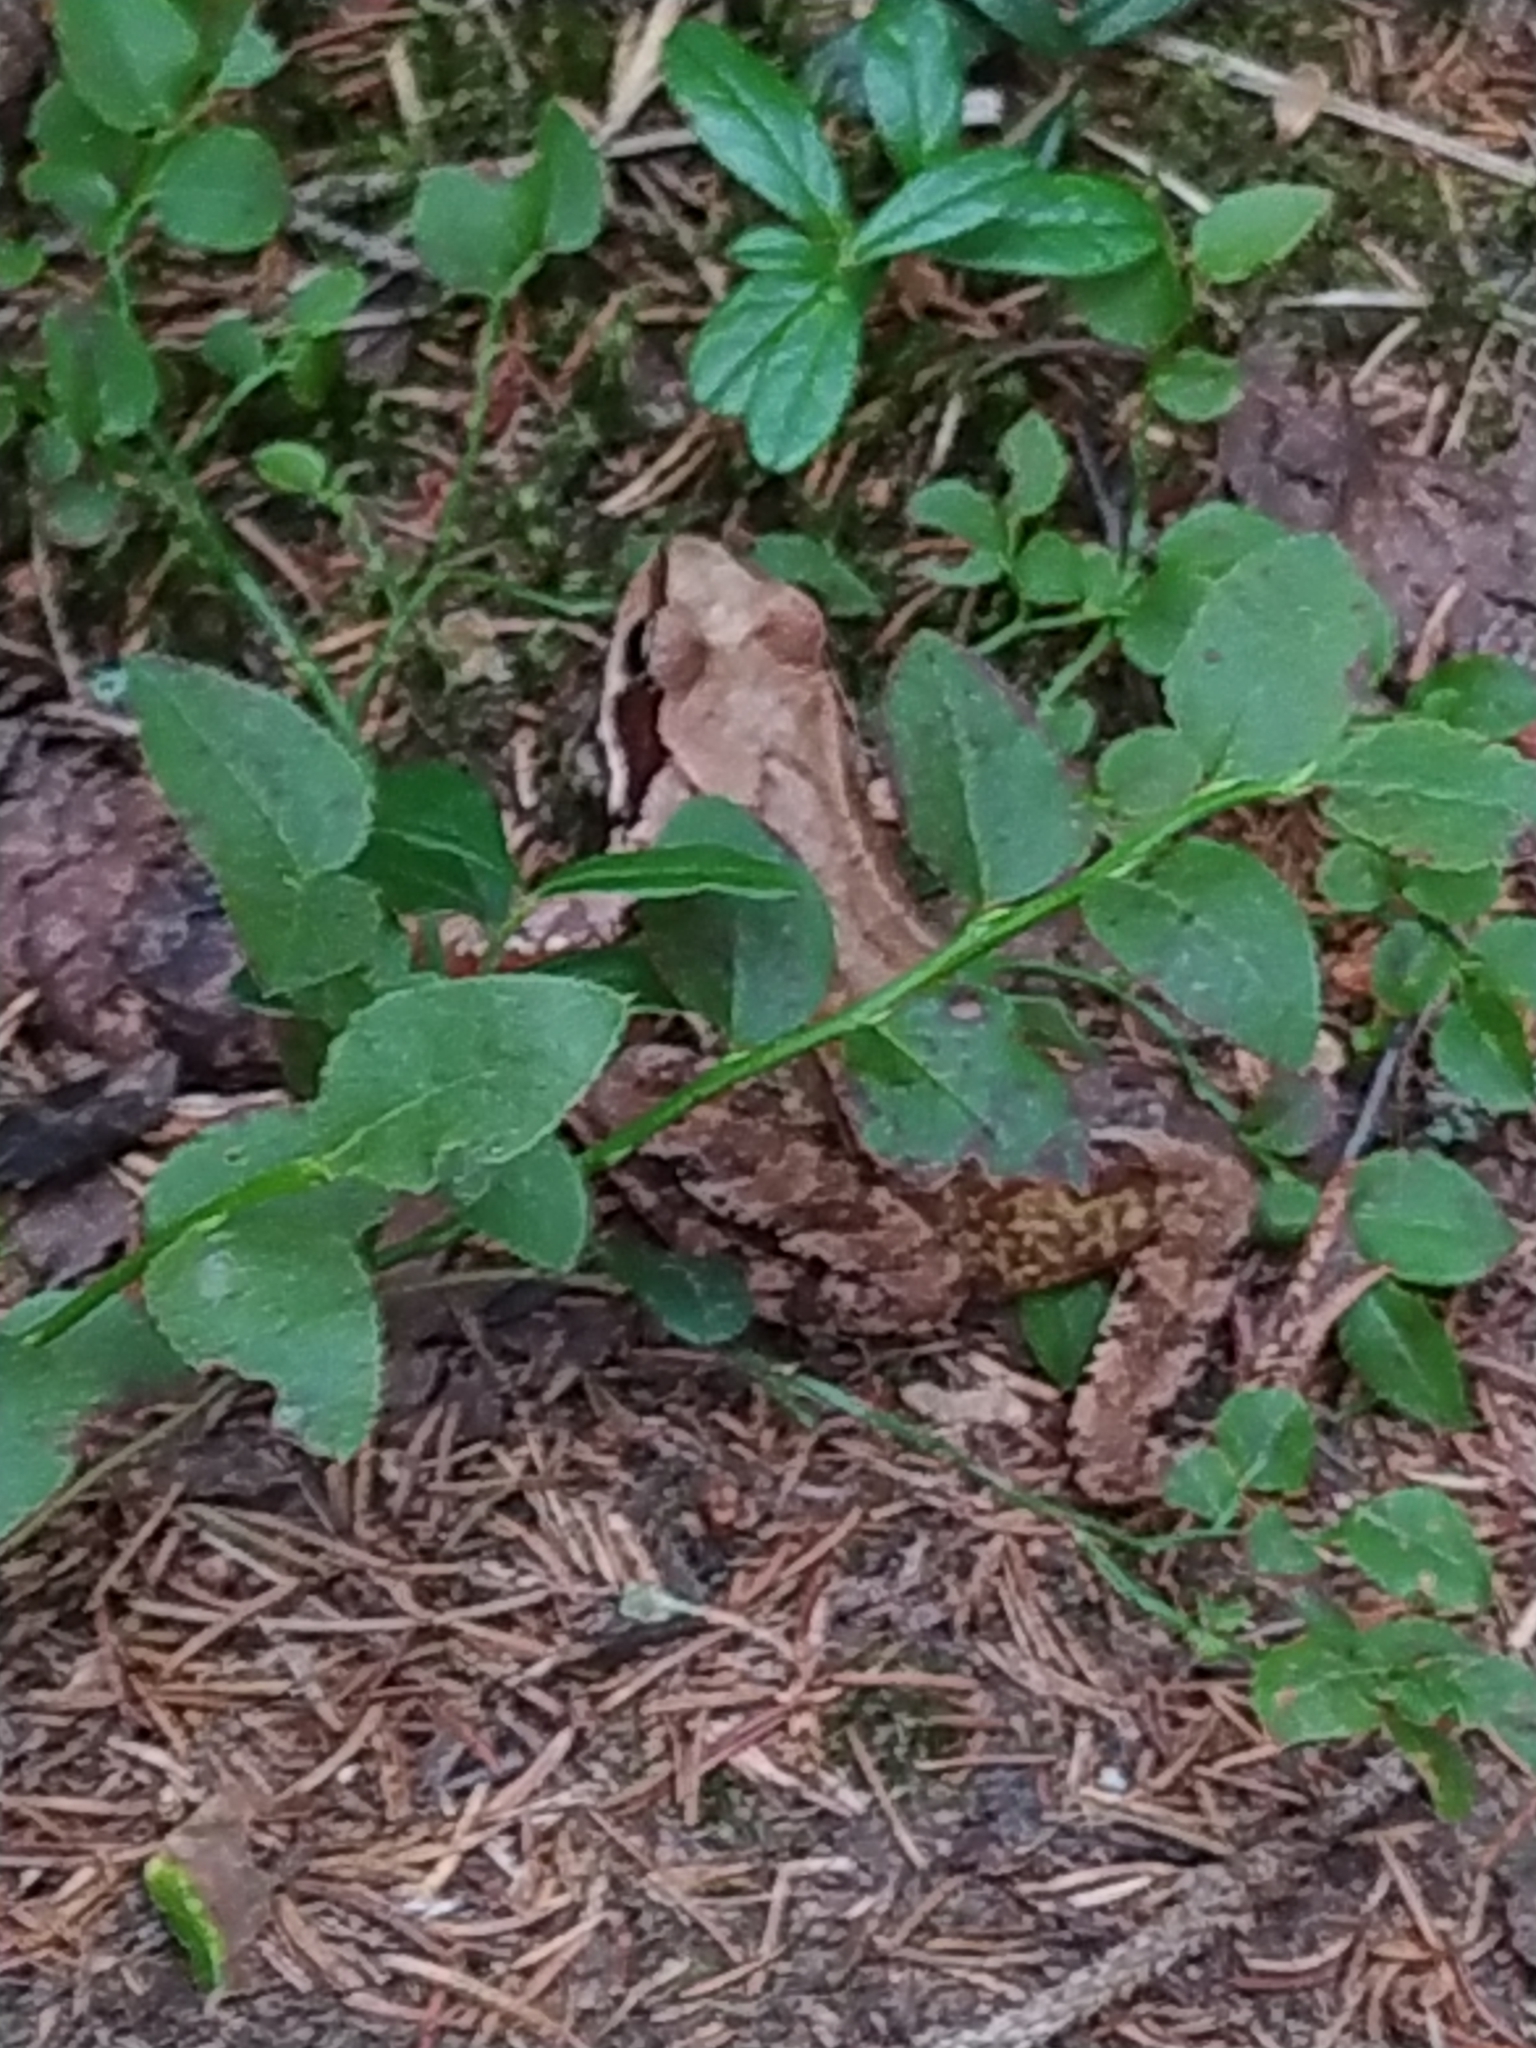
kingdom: Animalia
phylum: Chordata
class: Amphibia
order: Anura
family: Ranidae
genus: Rana
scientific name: Rana temporaria
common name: Common frog
